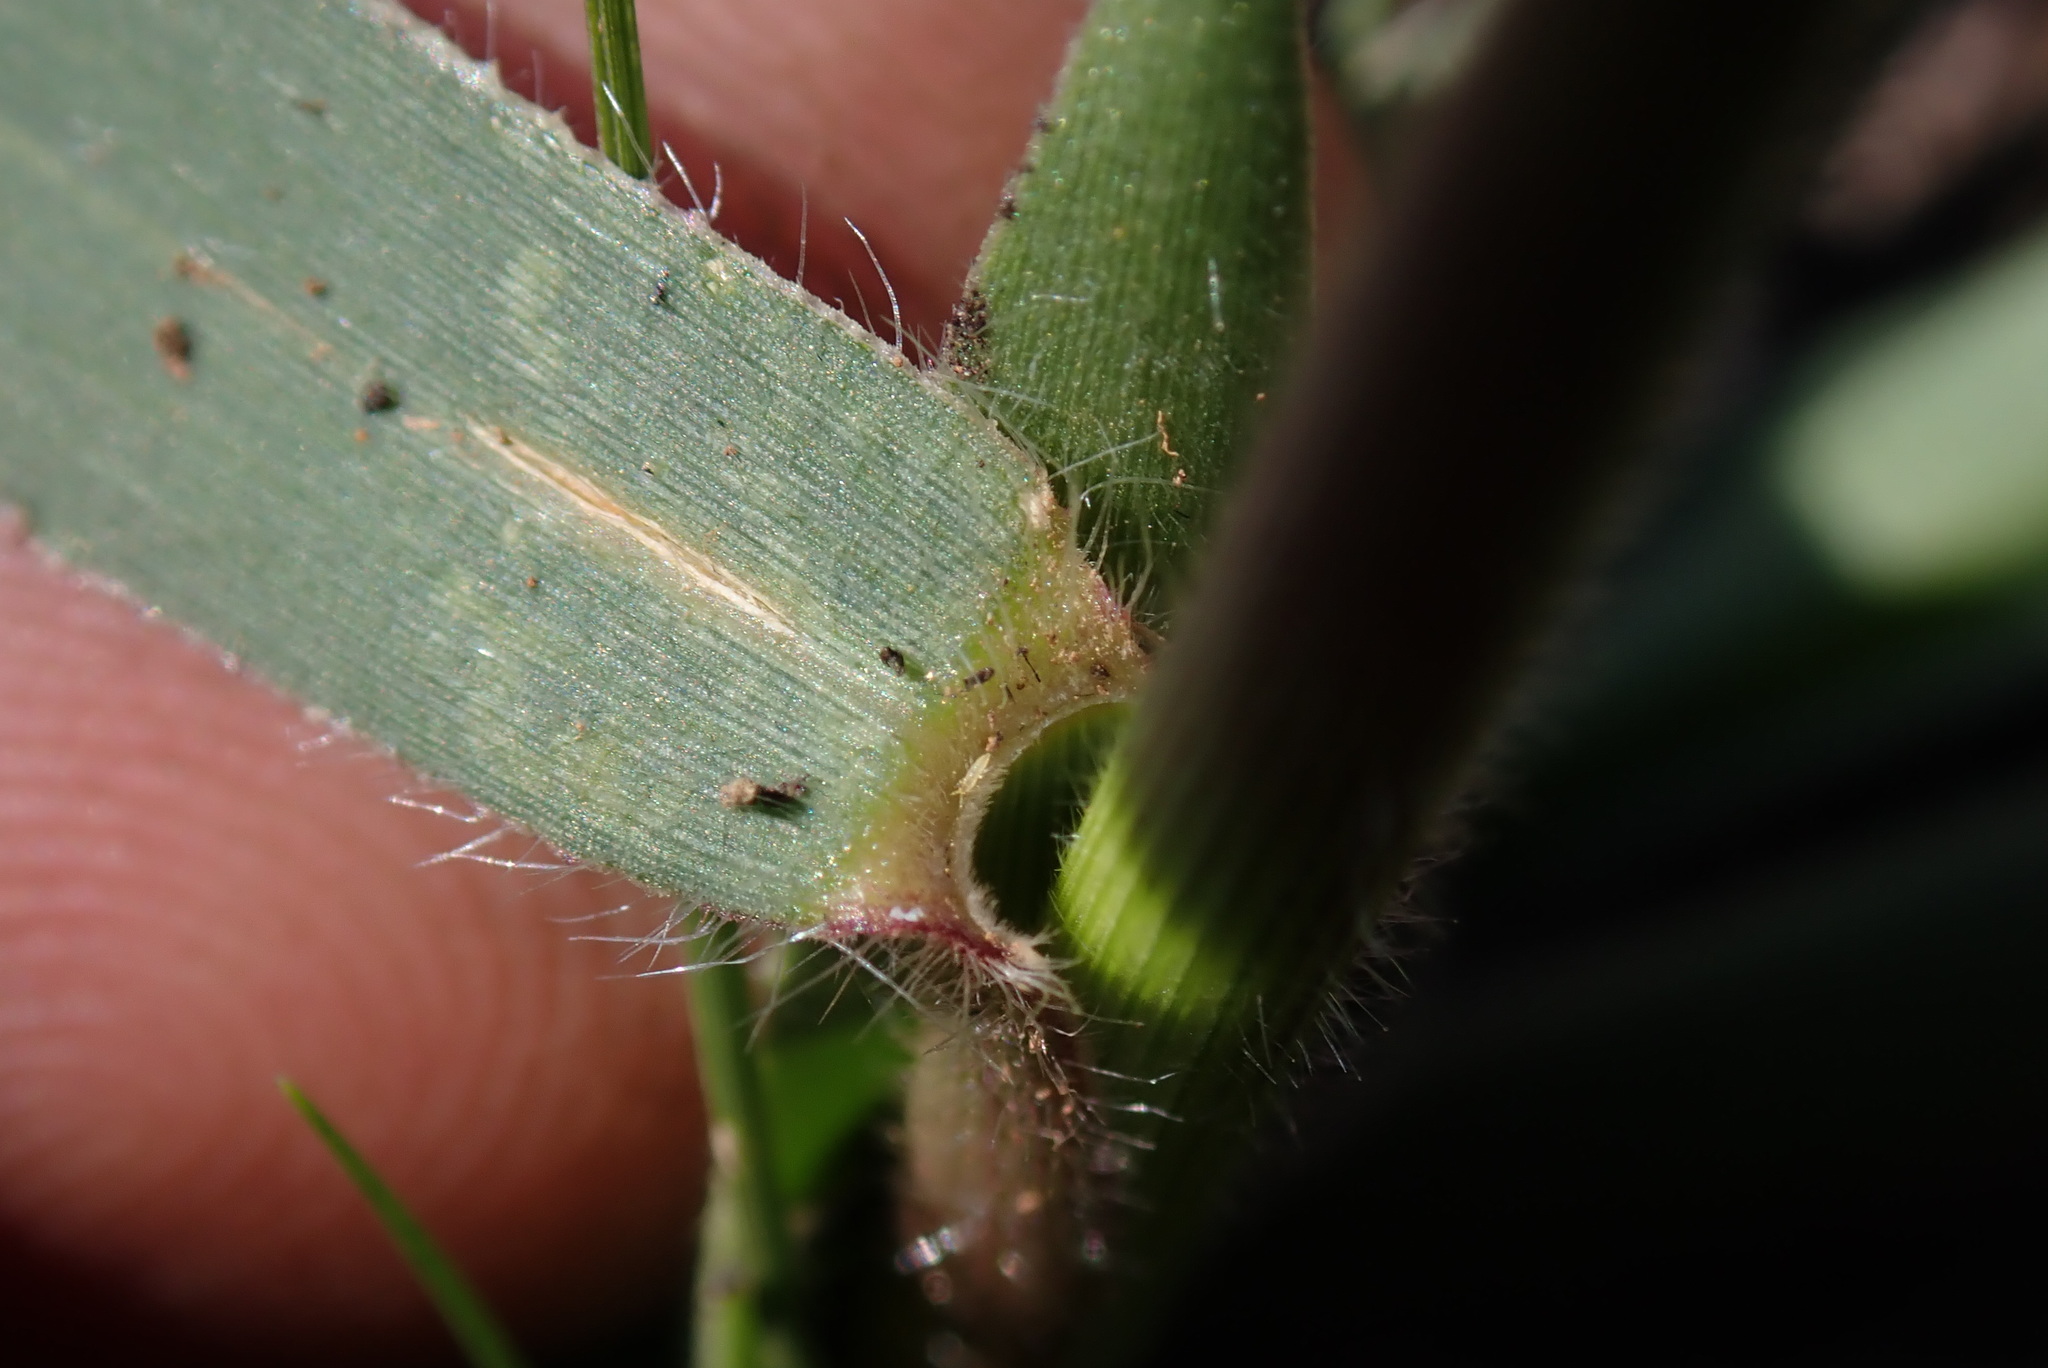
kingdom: Plantae
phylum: Tracheophyta
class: Liliopsida
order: Poales
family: Poaceae
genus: Urochloa
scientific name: Urochloa serrata
